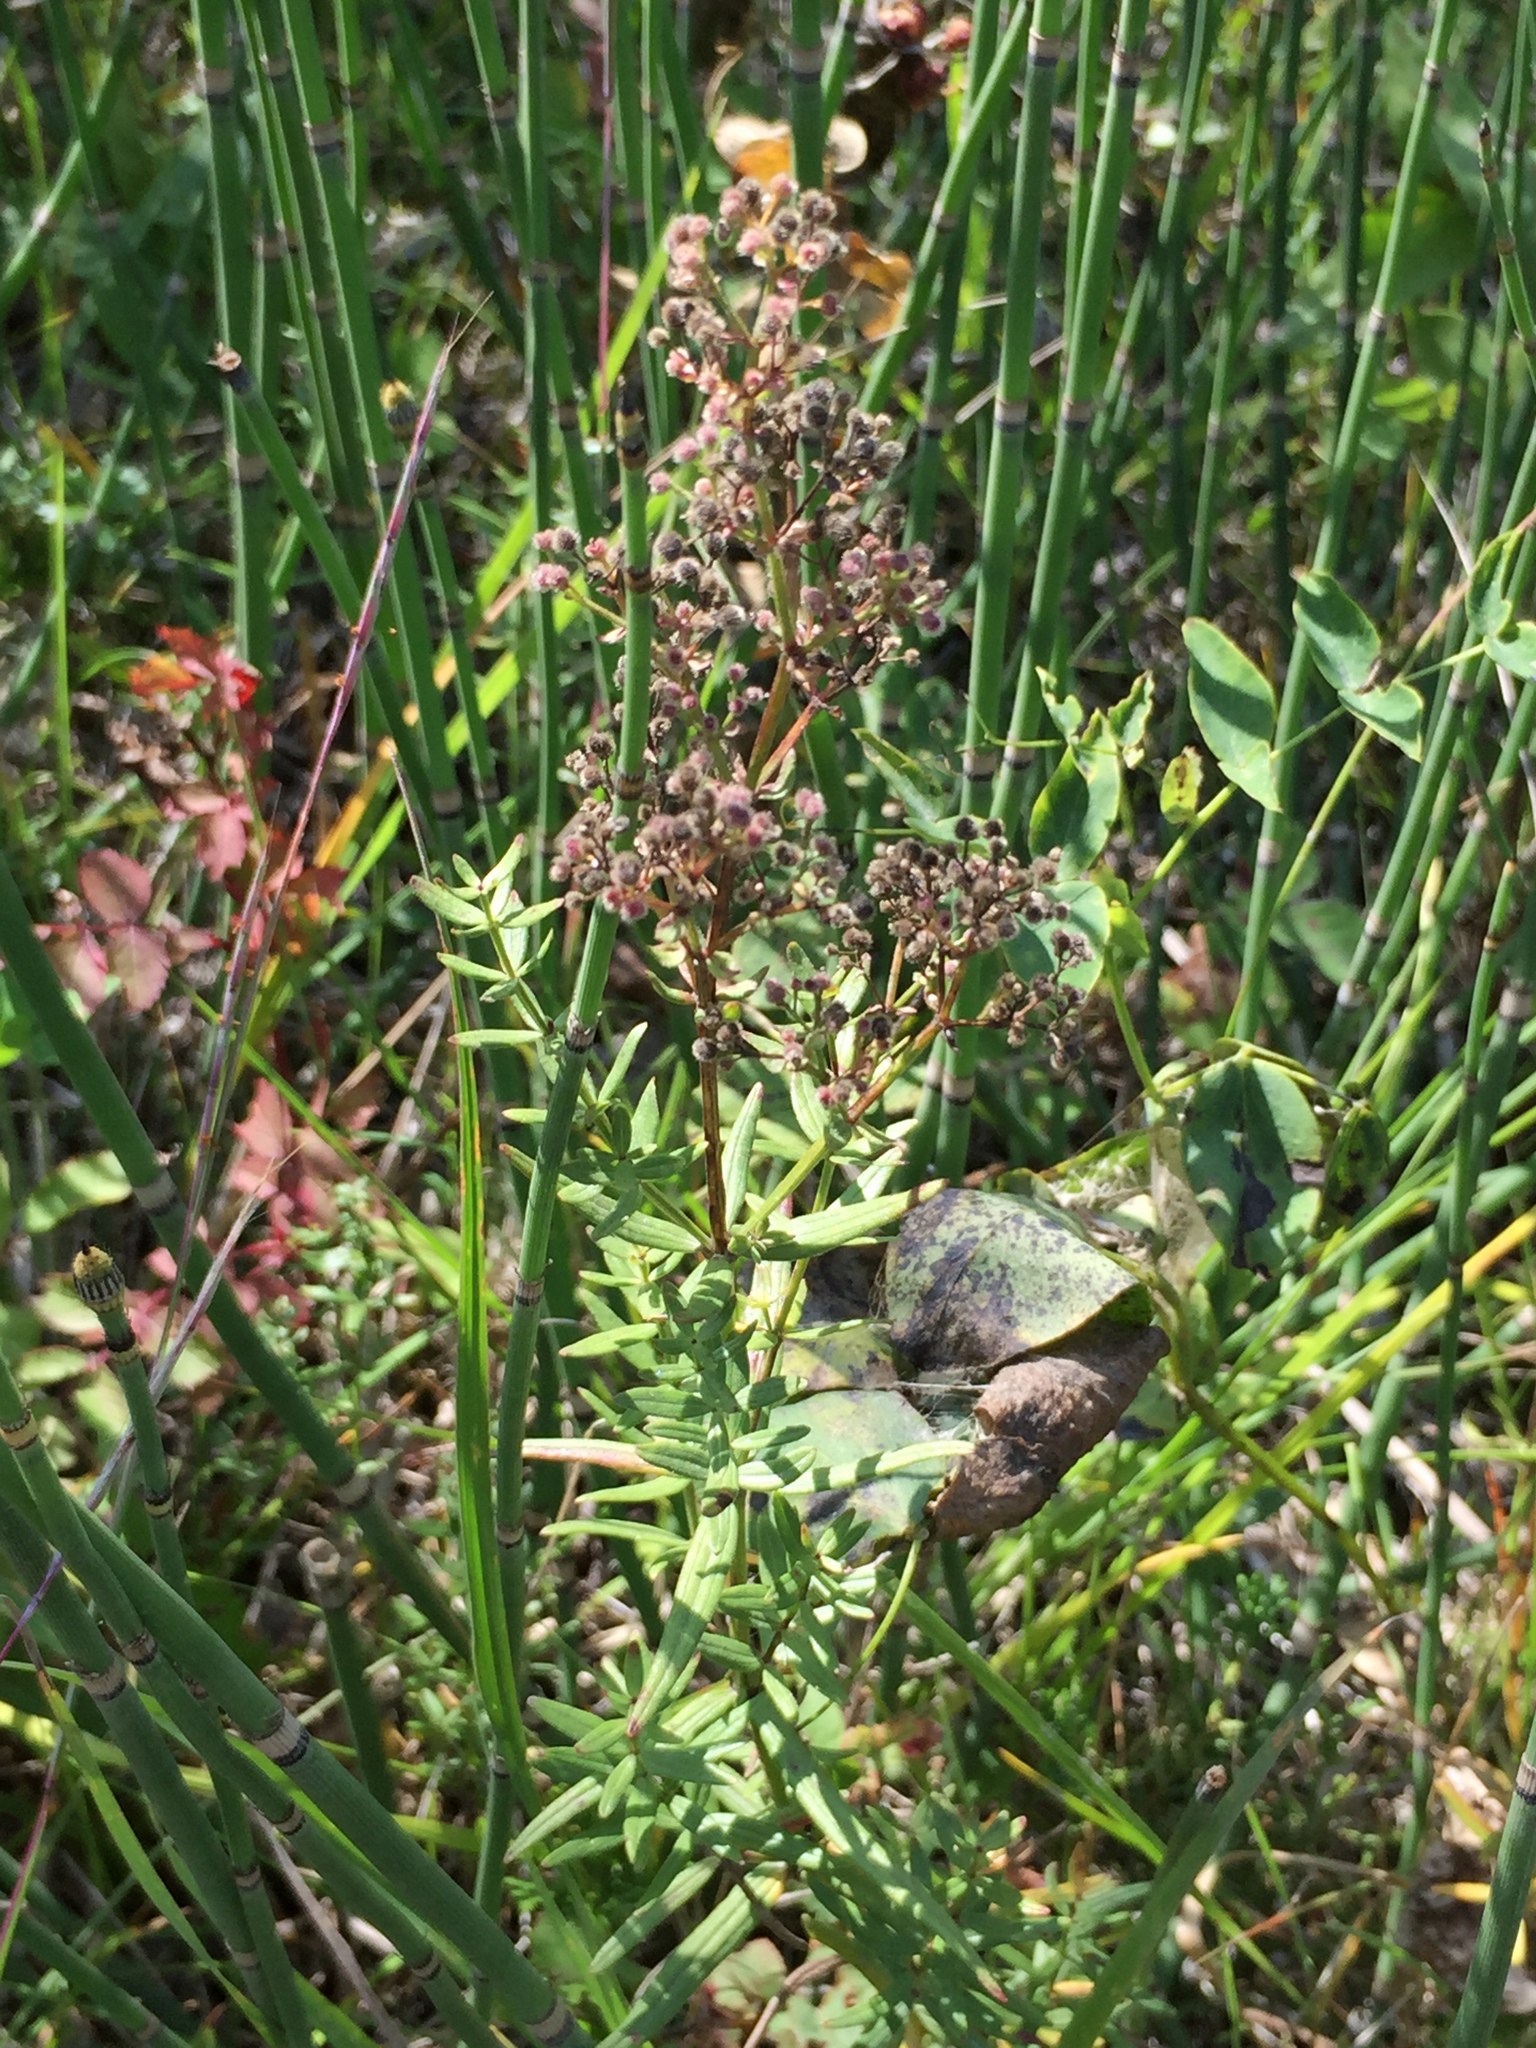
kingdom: Plantae
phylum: Tracheophyta
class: Magnoliopsida
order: Gentianales
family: Rubiaceae
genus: Galium
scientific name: Galium boreale
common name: Northern bedstraw
